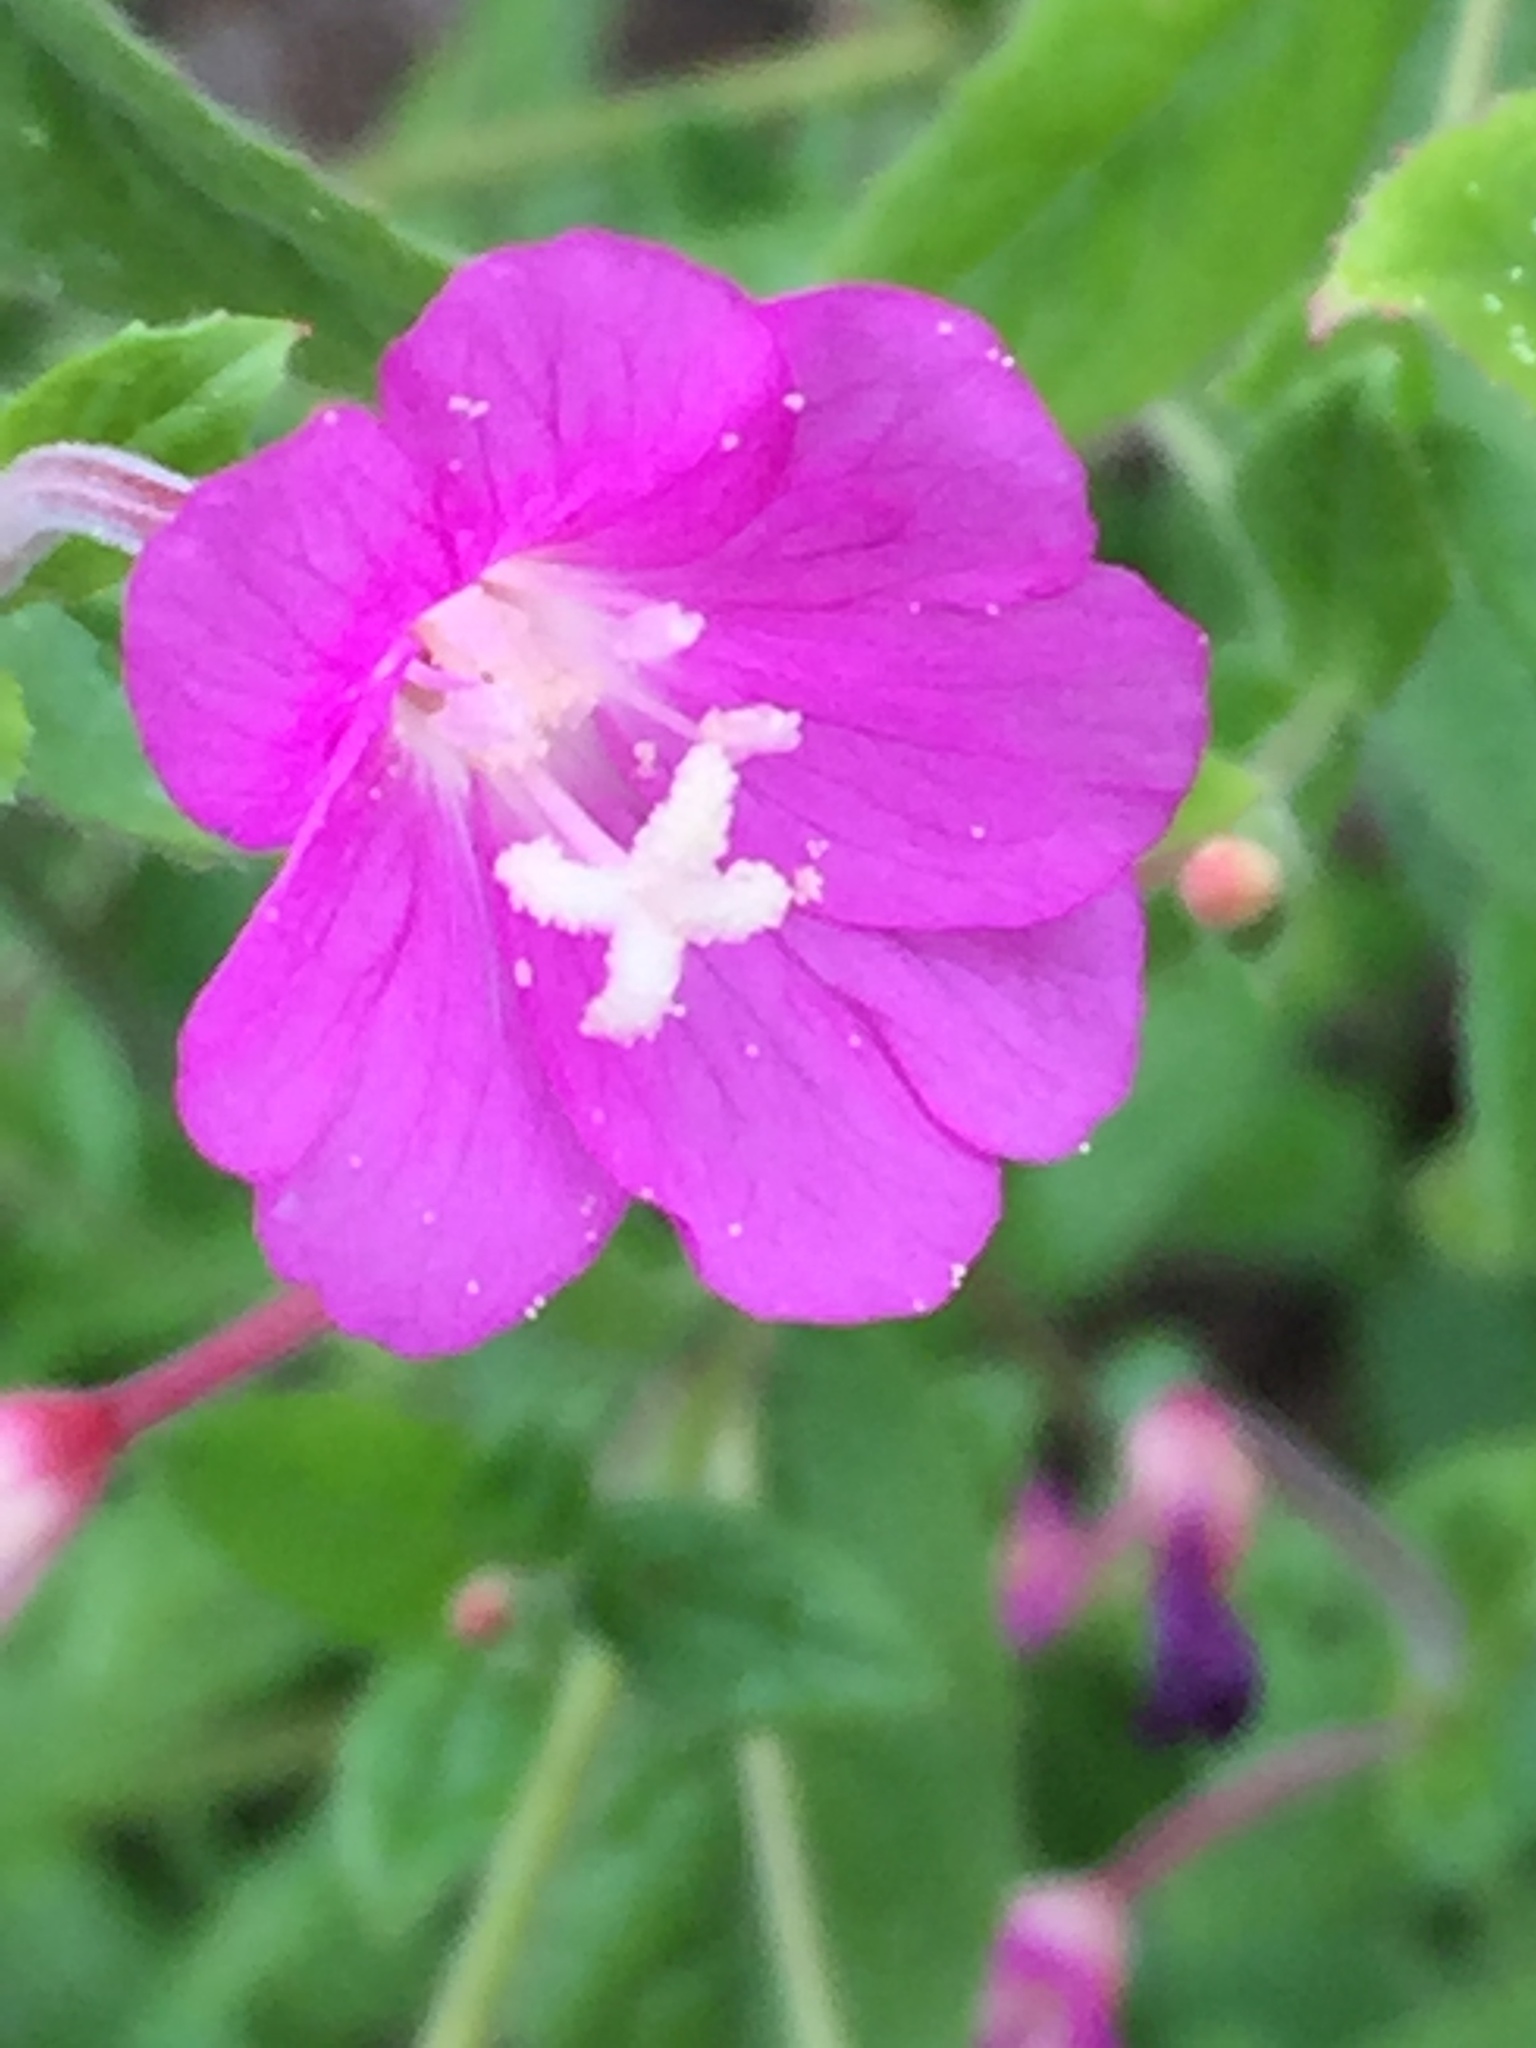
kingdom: Plantae
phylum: Tracheophyta
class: Magnoliopsida
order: Myrtales
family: Onagraceae
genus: Epilobium
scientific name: Epilobium hirsutum
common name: Great willowherb
